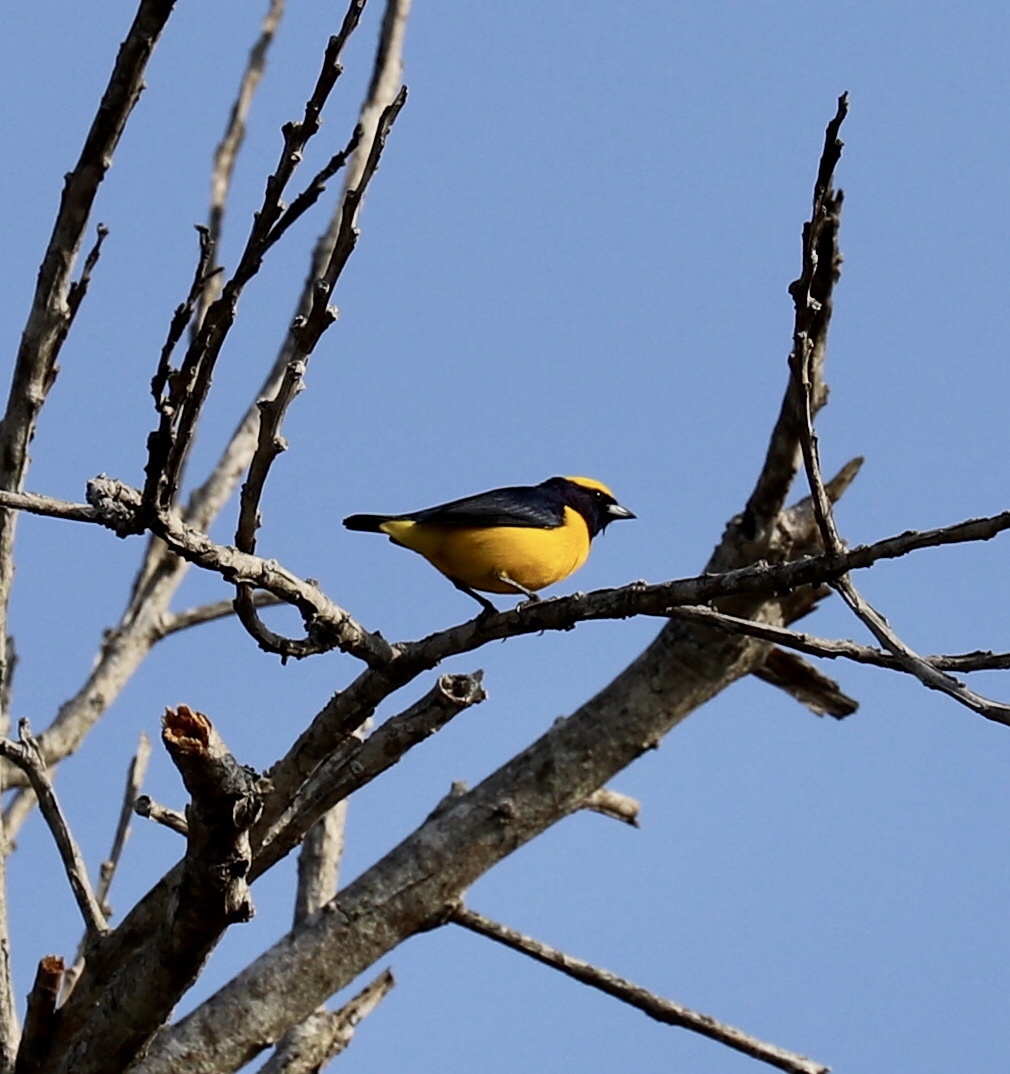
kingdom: Animalia
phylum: Chordata
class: Aves
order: Passeriformes
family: Fringillidae
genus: Euphonia
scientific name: Euphonia luteicapilla
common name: Yellow-crowned euphonia
